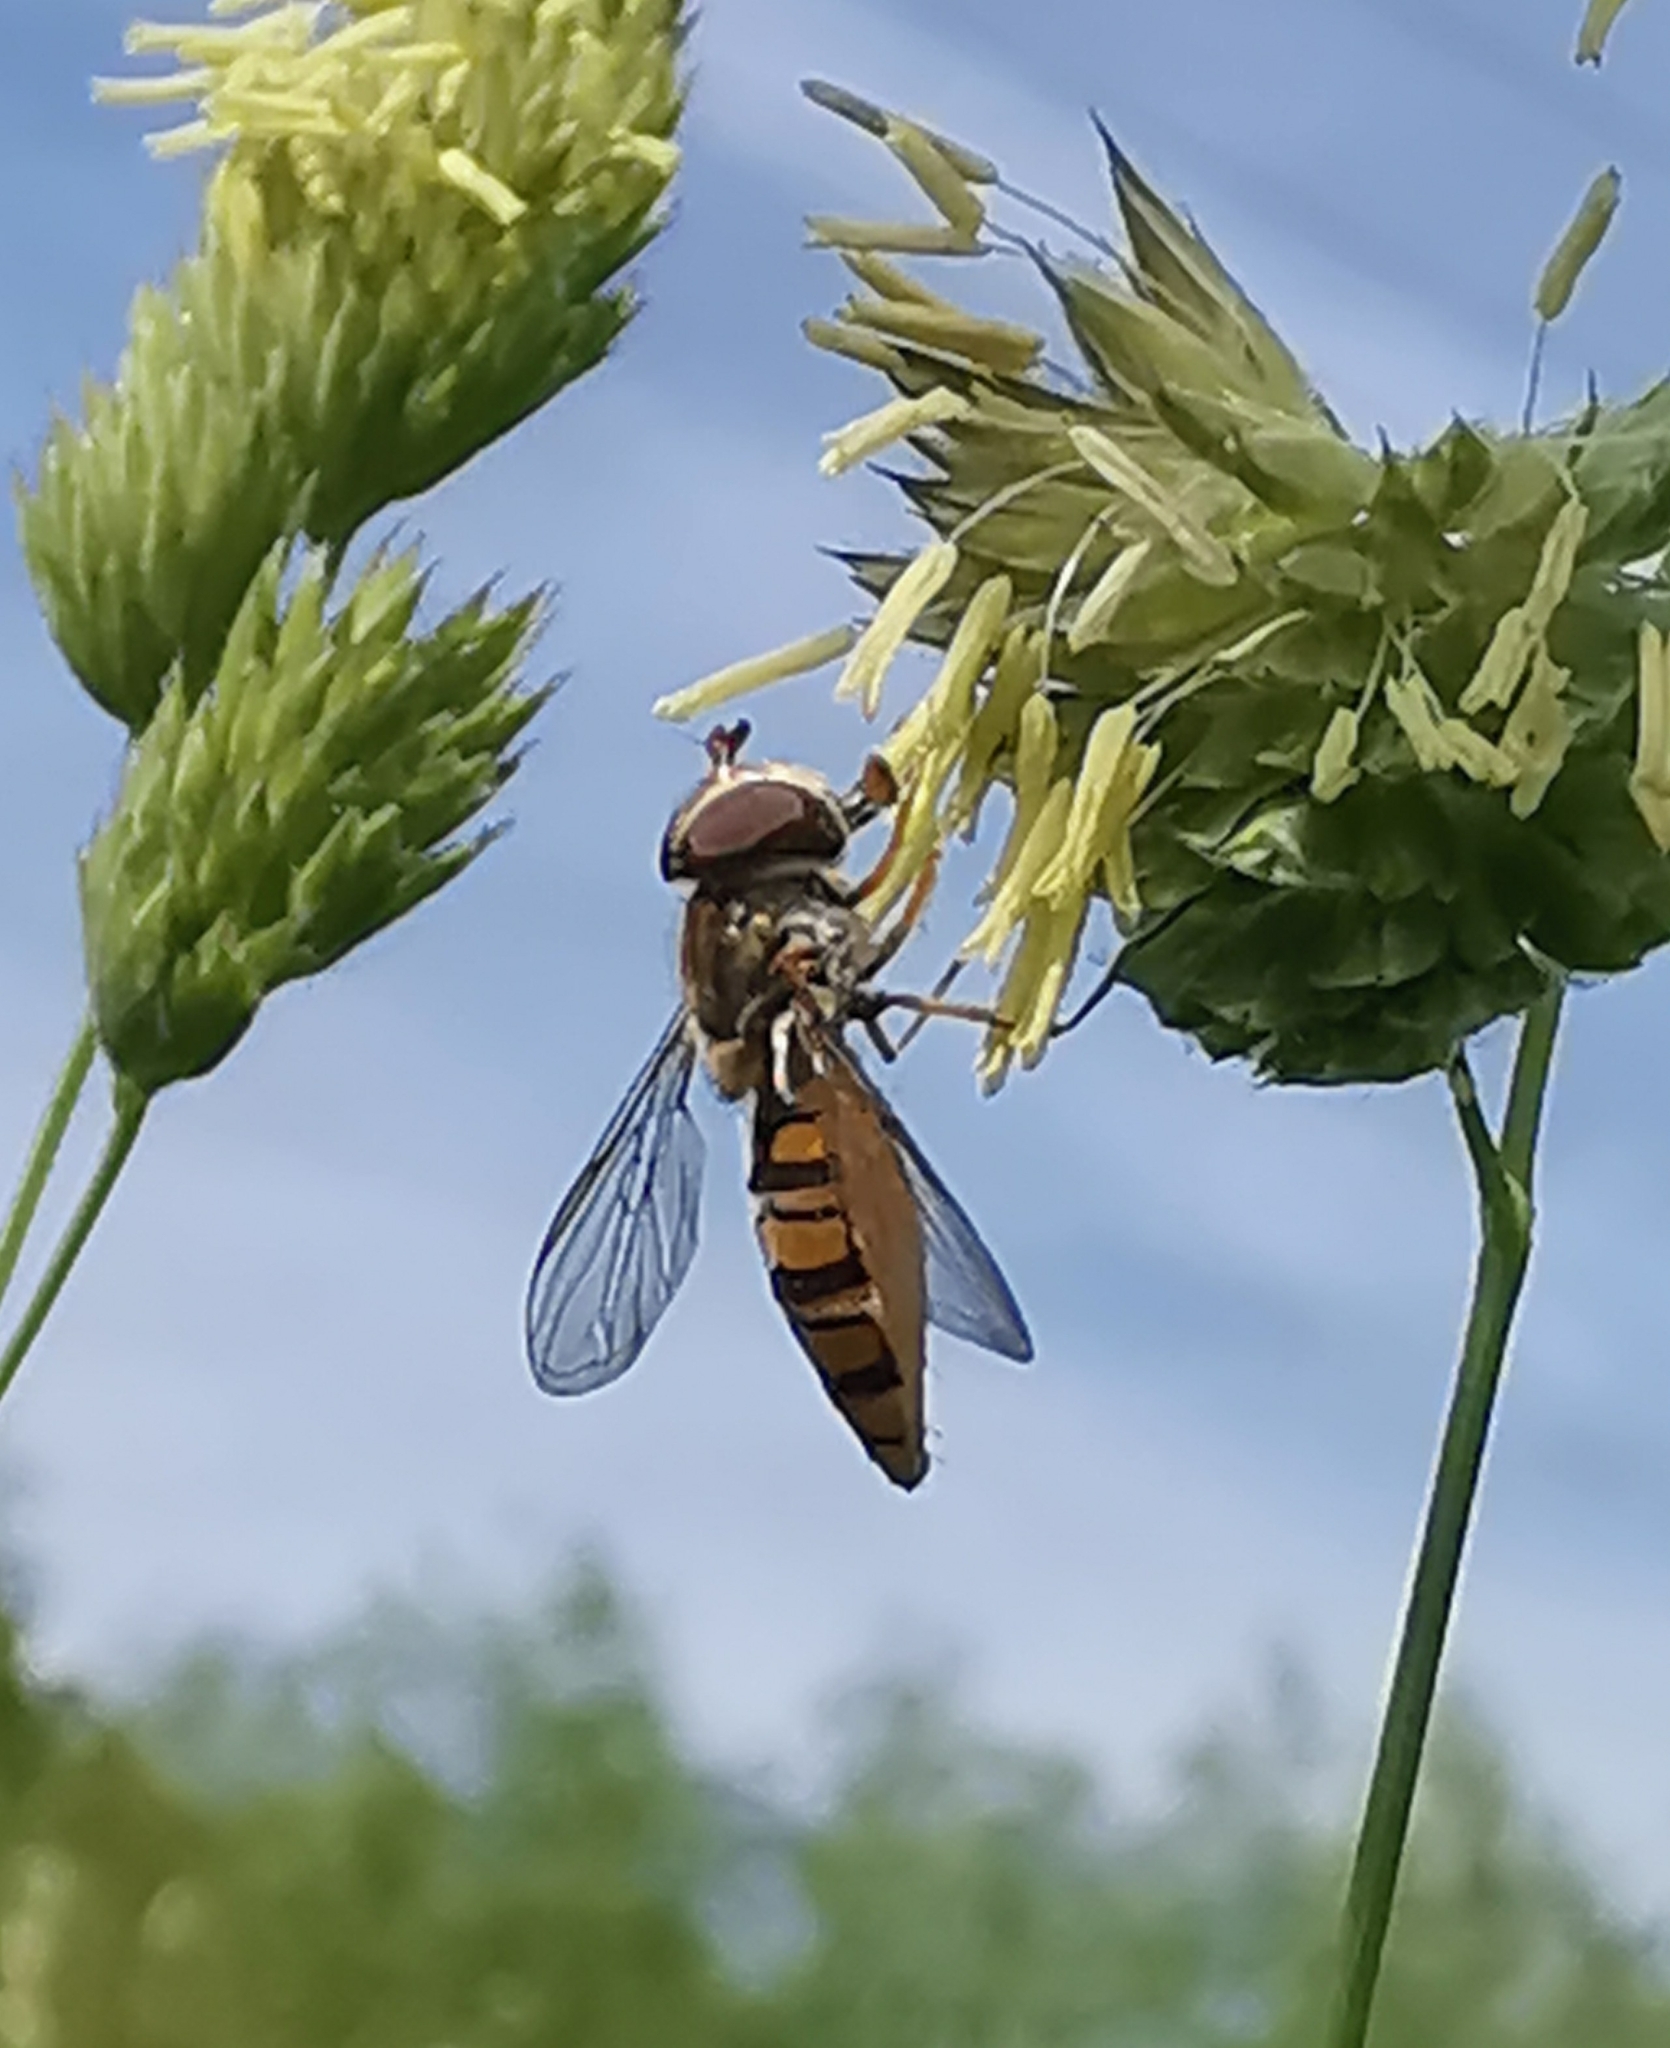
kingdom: Animalia
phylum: Arthropoda
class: Insecta
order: Diptera
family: Syrphidae
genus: Episyrphus
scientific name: Episyrphus balteatus
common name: Marmalade hoverfly
